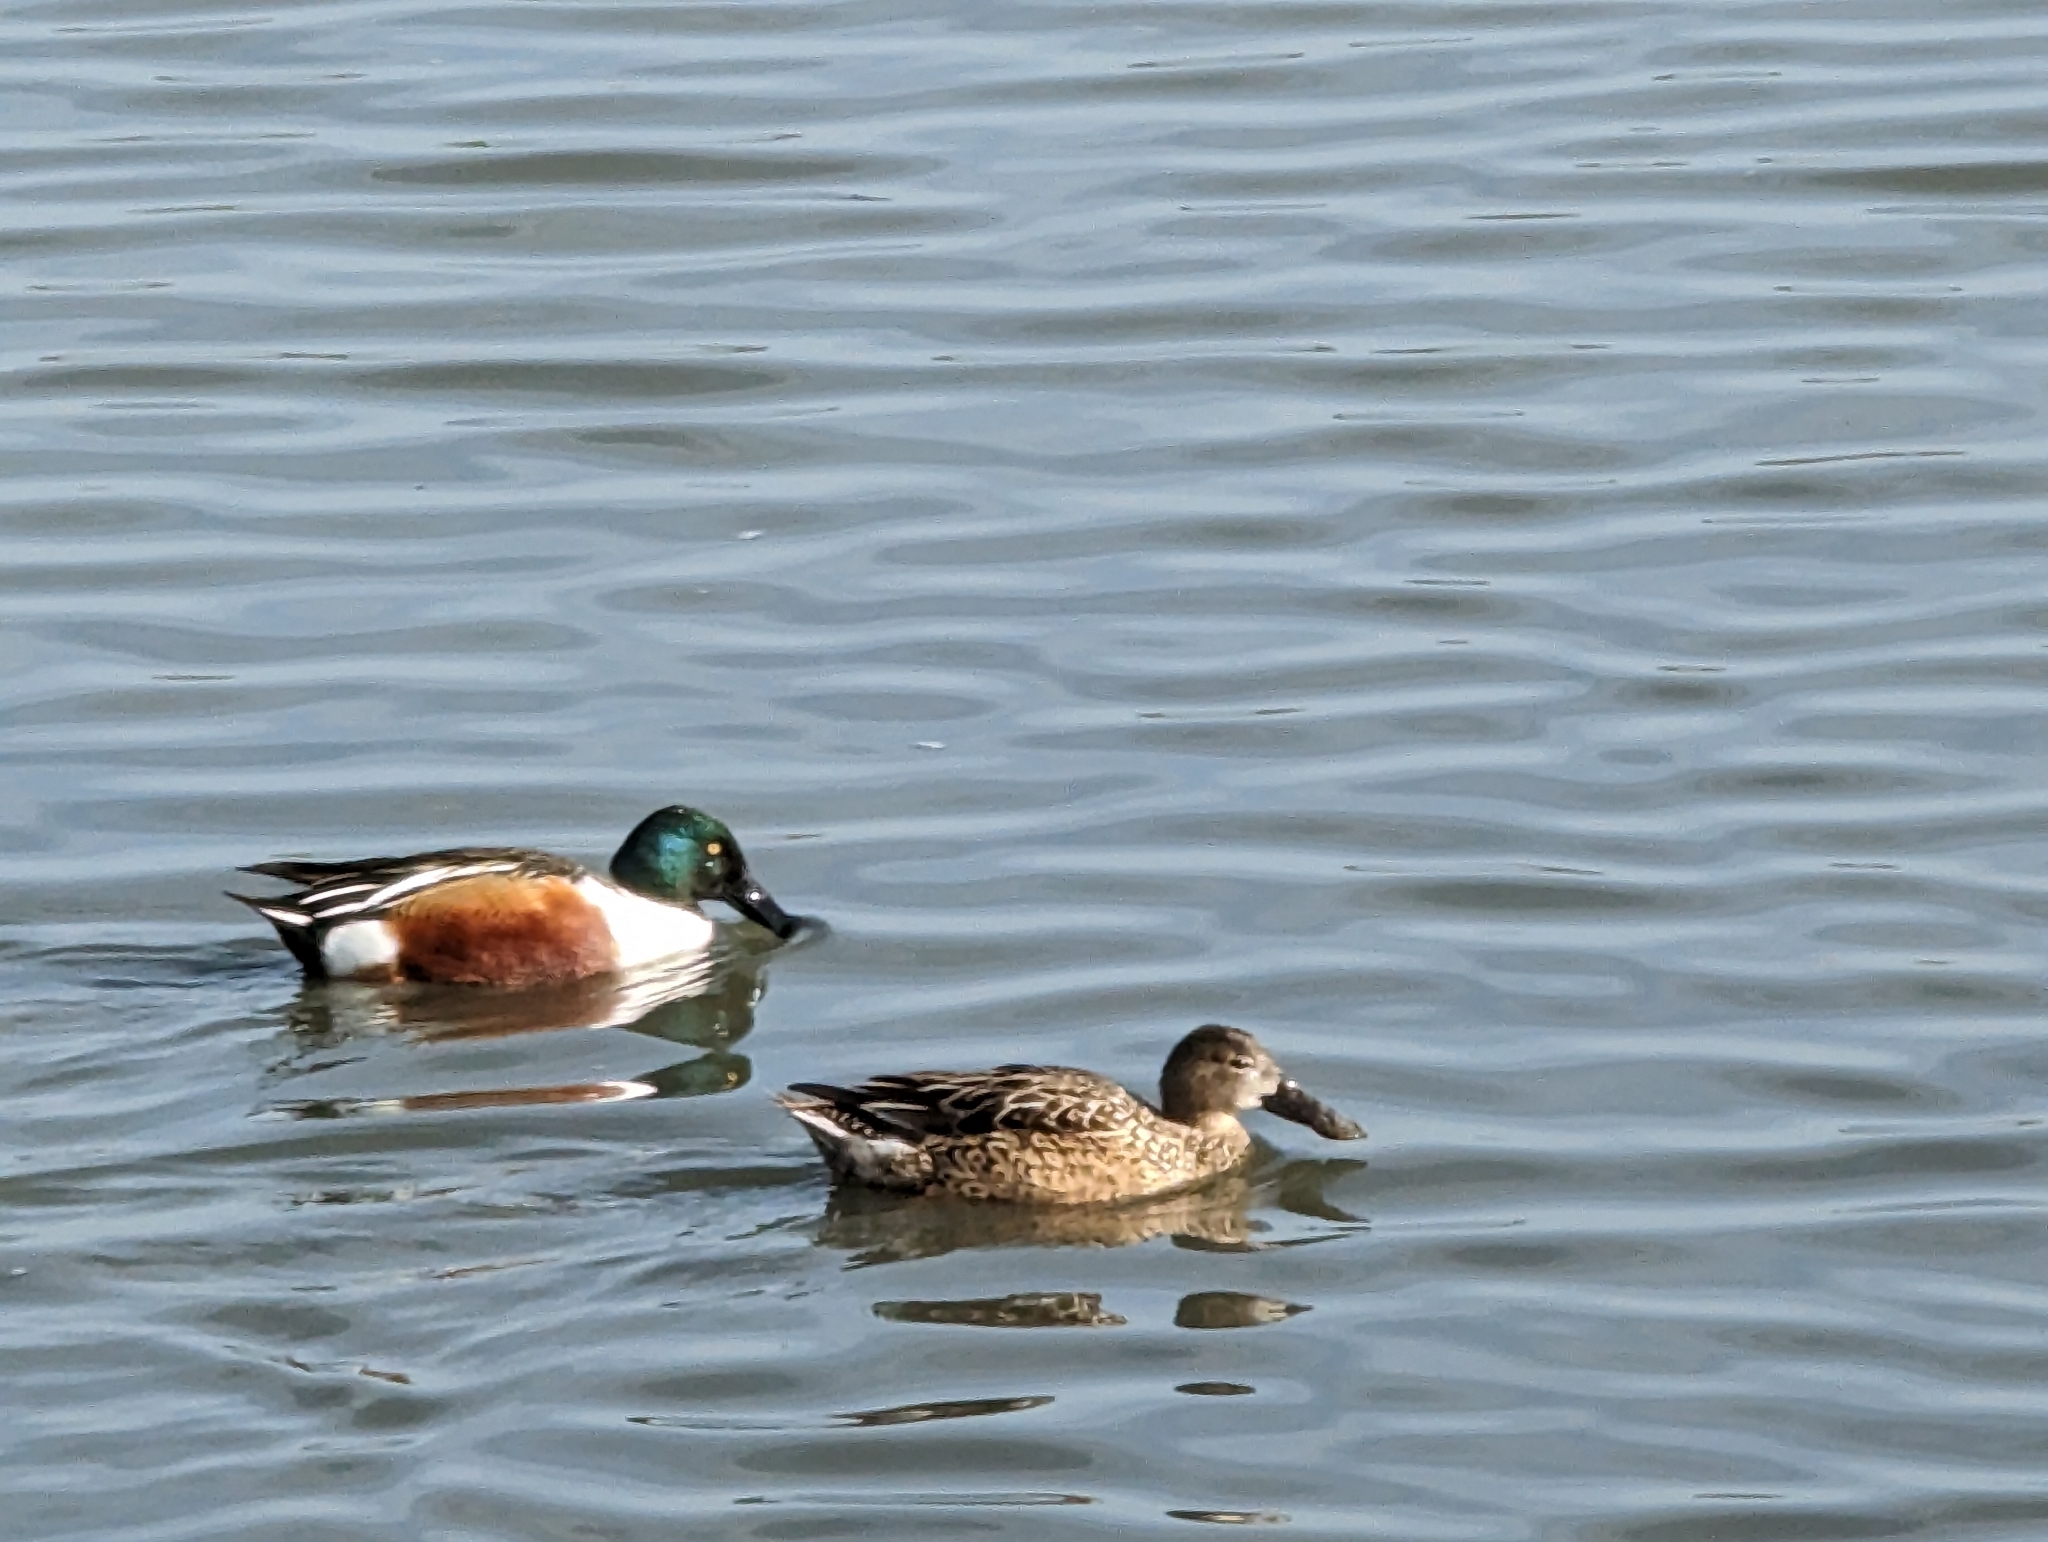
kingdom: Animalia
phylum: Chordata
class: Aves
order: Anseriformes
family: Anatidae
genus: Spatula
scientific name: Spatula clypeata
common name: Northern shoveler
